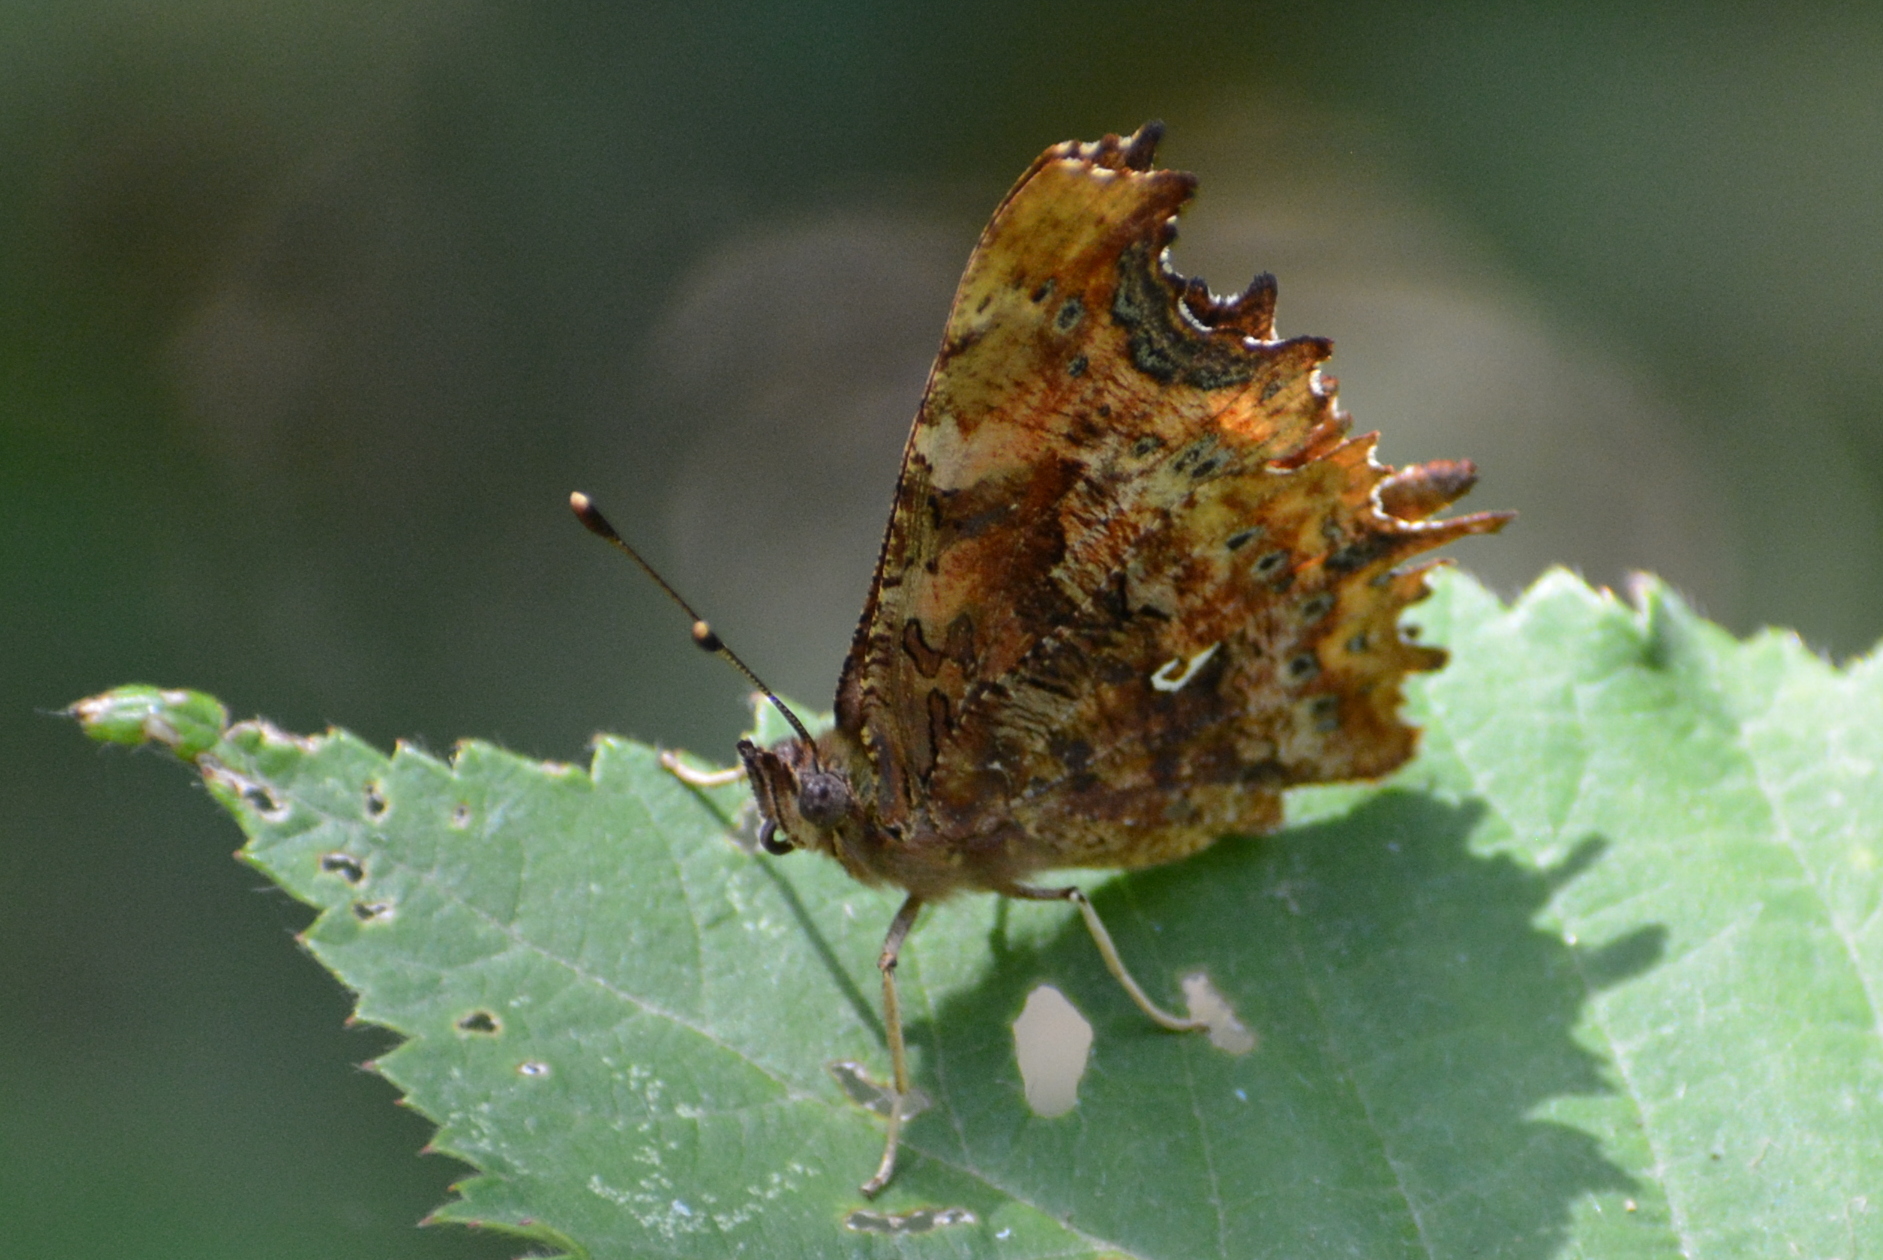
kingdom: Animalia
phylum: Arthropoda
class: Insecta
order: Lepidoptera
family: Nymphalidae
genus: Polygonia
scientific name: Polygonia c-album
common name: Comma
